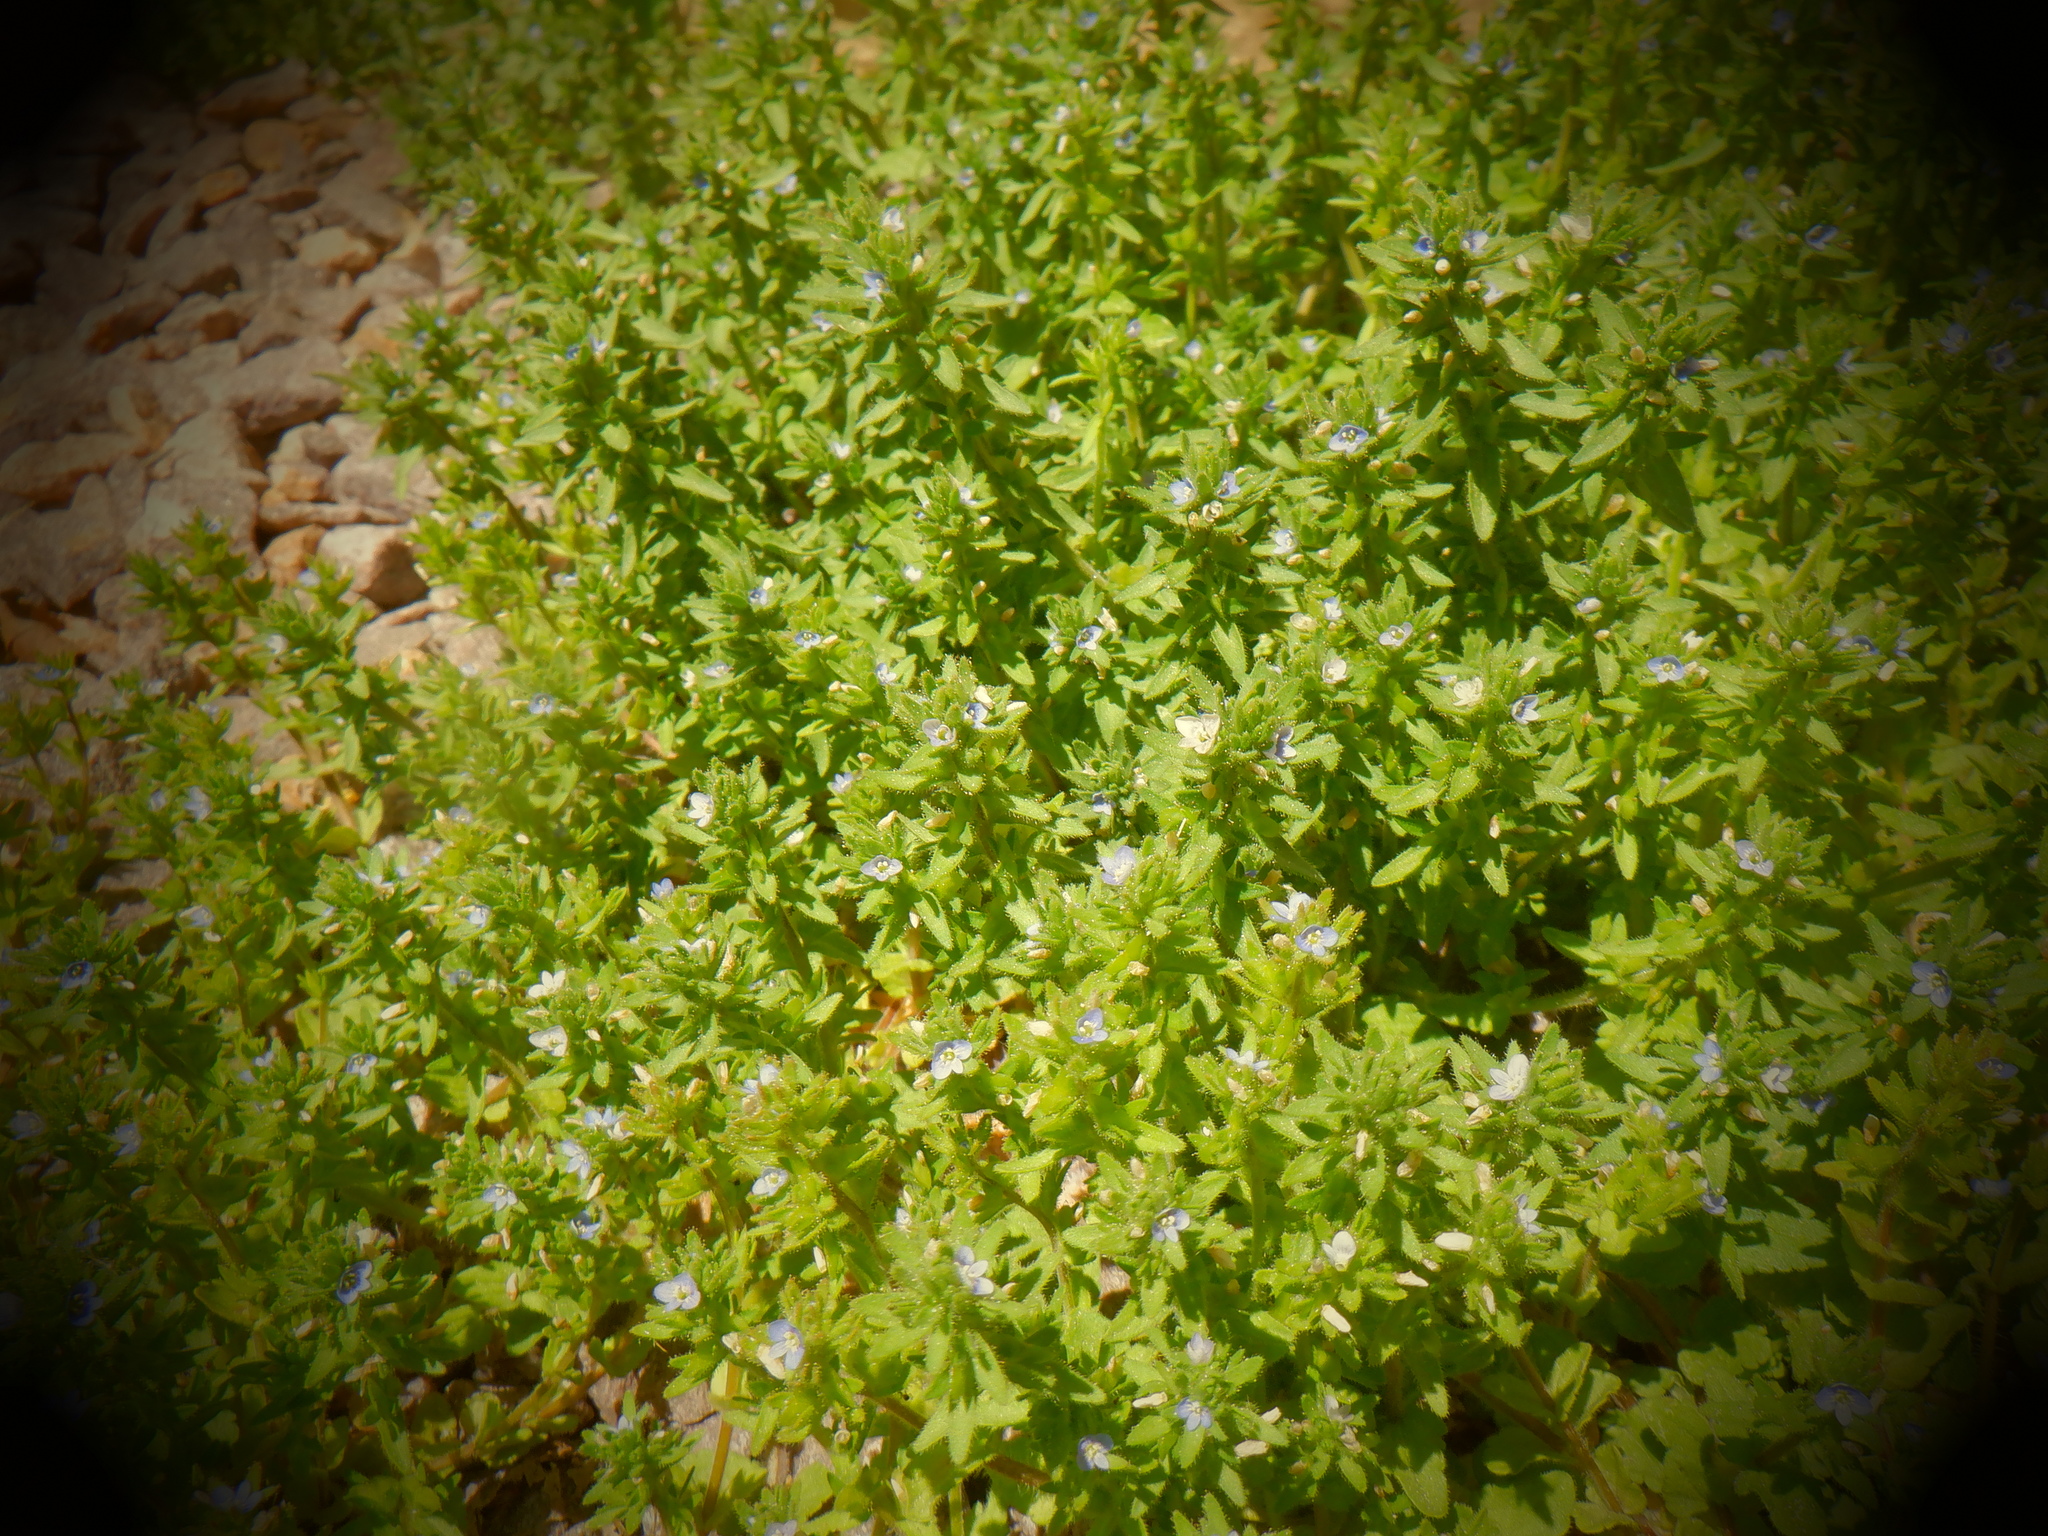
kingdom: Plantae
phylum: Tracheophyta
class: Magnoliopsida
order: Lamiales
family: Plantaginaceae
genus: Veronica
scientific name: Veronica arvensis
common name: Corn speedwell
